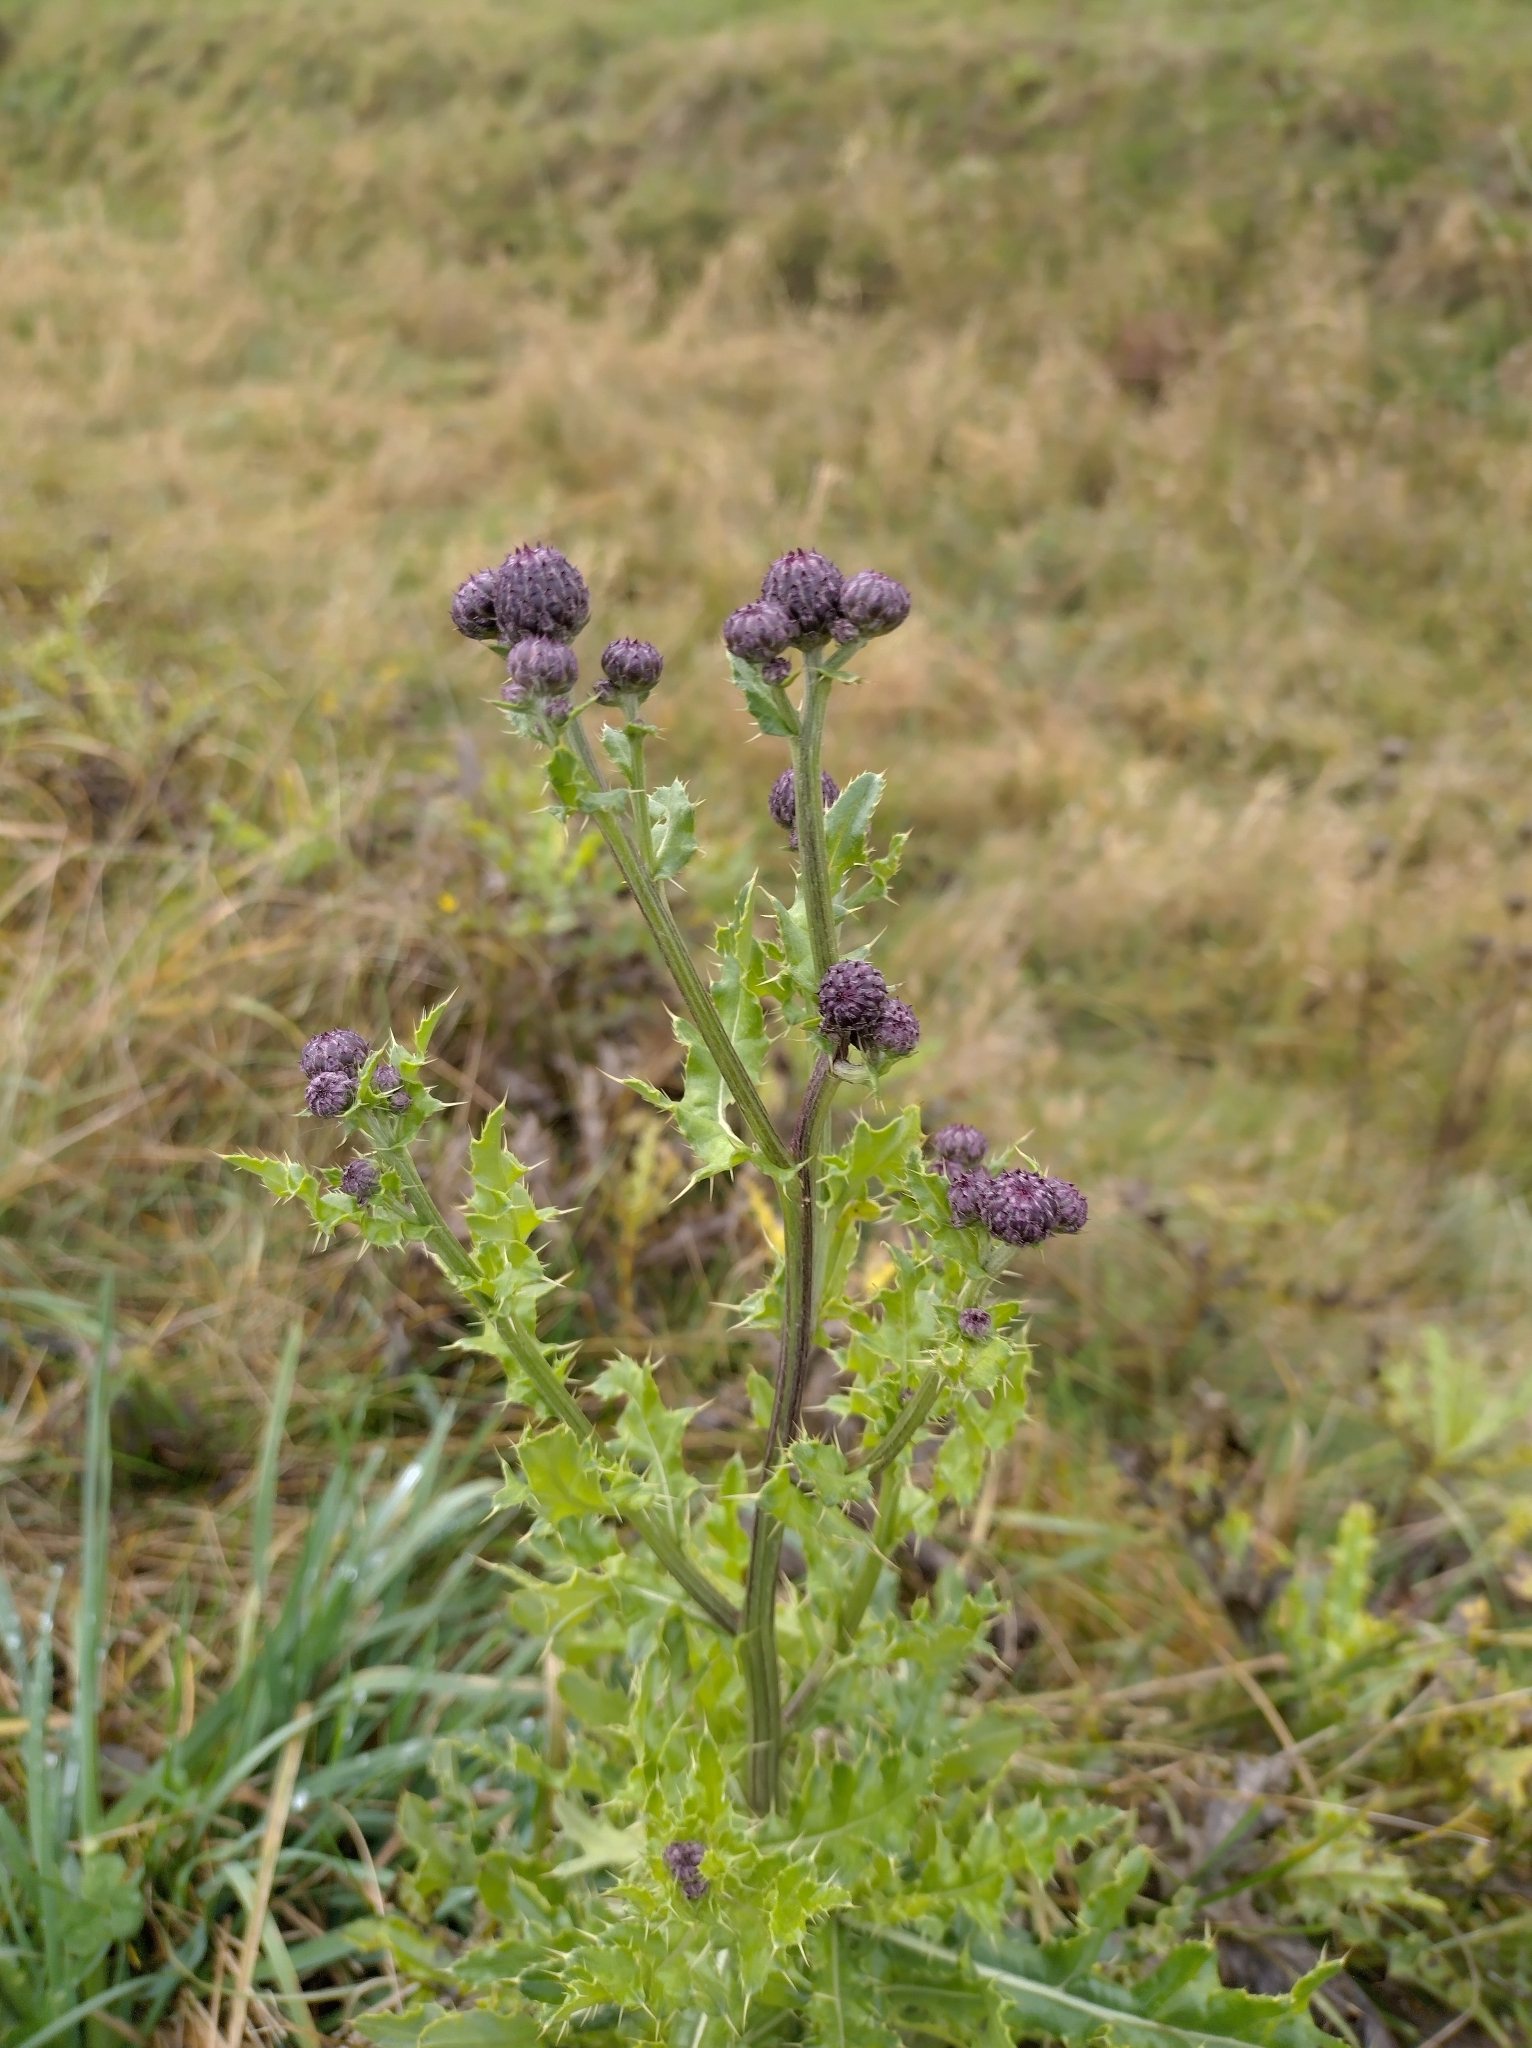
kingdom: Plantae
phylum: Tracheophyta
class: Magnoliopsida
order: Asterales
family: Asteraceae
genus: Cirsium
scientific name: Cirsium arvense
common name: Creeping thistle
